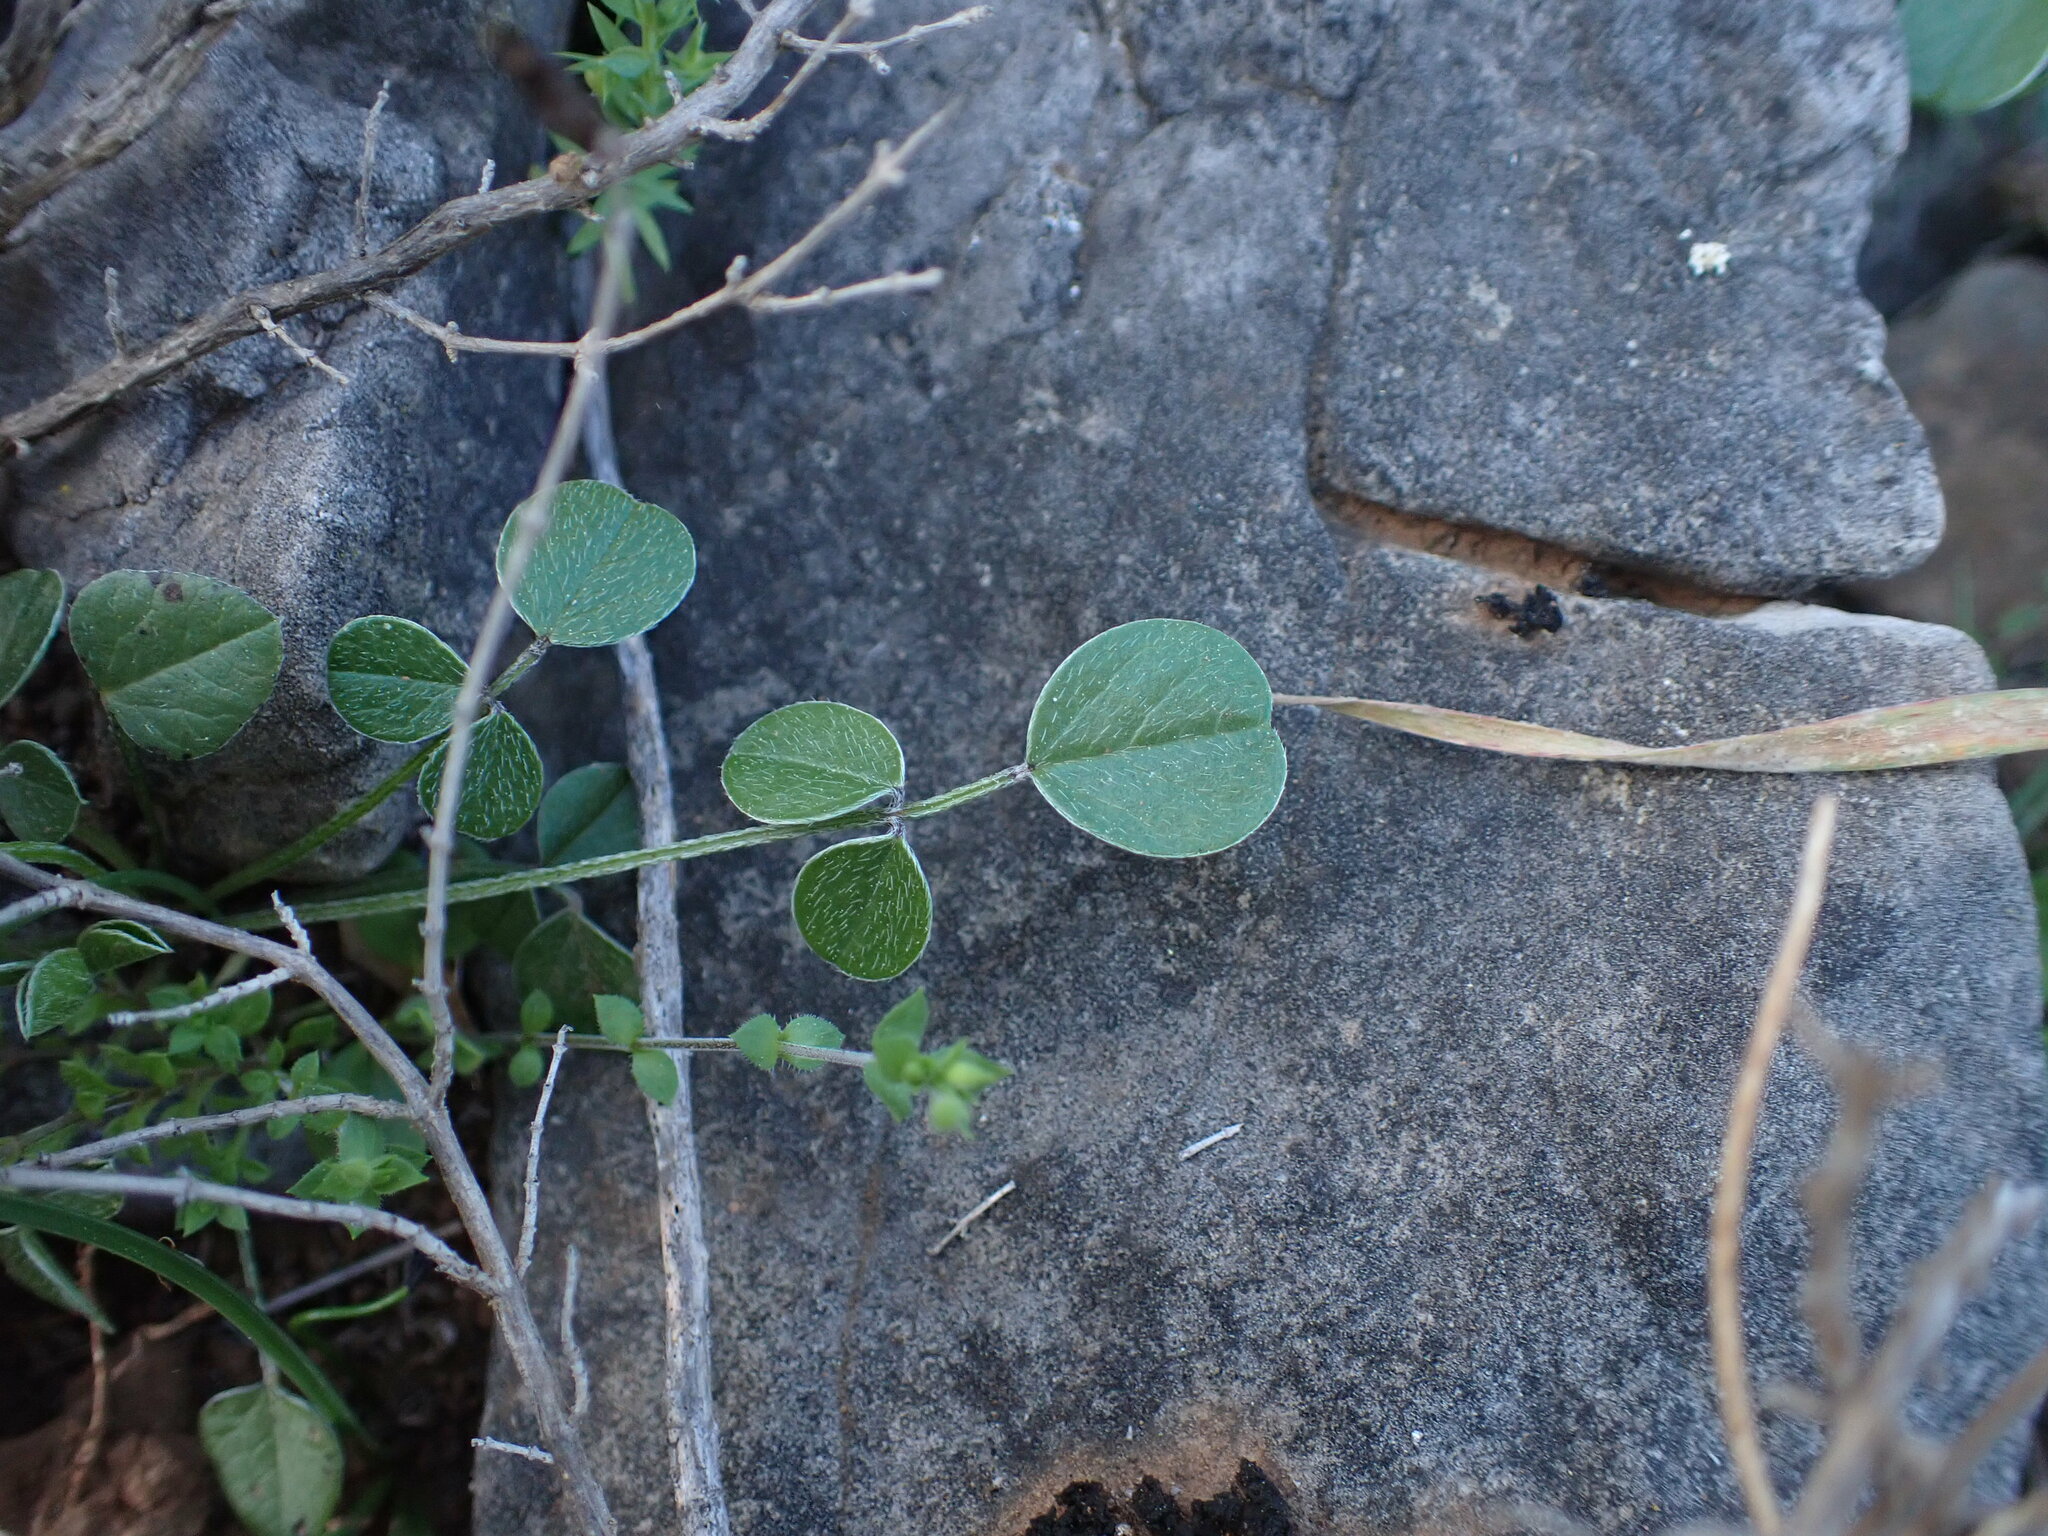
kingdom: Plantae
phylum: Tracheophyta
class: Magnoliopsida
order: Fabales
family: Fabaceae
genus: Bituminaria
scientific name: Bituminaria bituminosa
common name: Arabian pea
